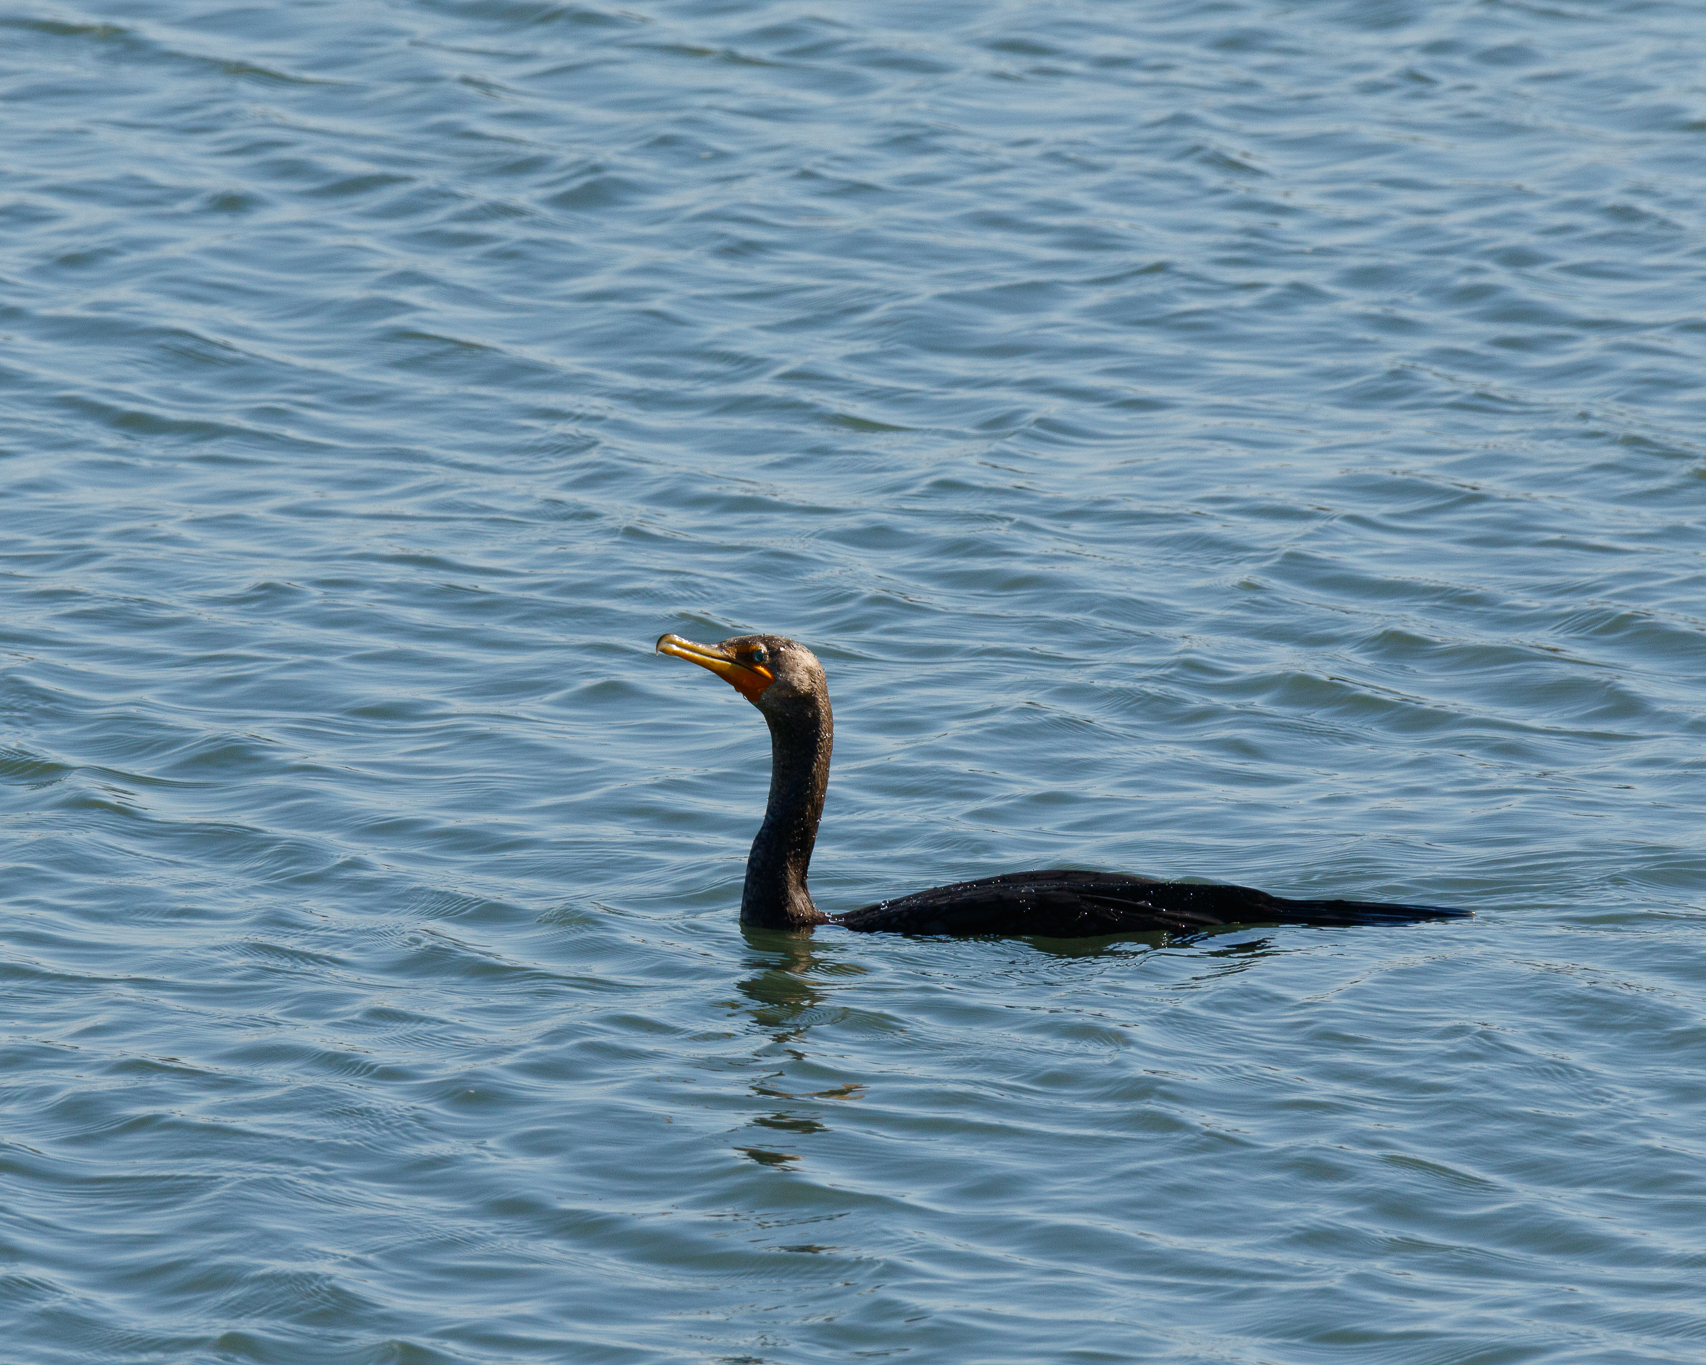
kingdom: Animalia
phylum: Chordata
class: Aves
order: Suliformes
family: Phalacrocoracidae
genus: Phalacrocorax
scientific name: Phalacrocorax auritus
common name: Double-crested cormorant
